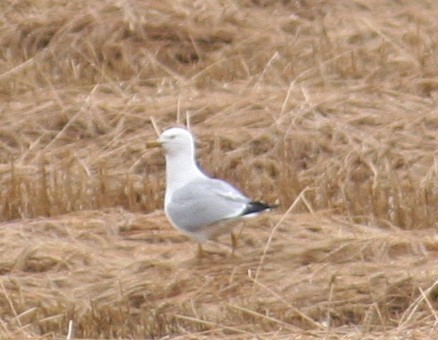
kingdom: Animalia
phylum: Chordata
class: Aves
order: Charadriiformes
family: Laridae
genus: Larus
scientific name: Larus delawarensis
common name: Ring-billed gull
